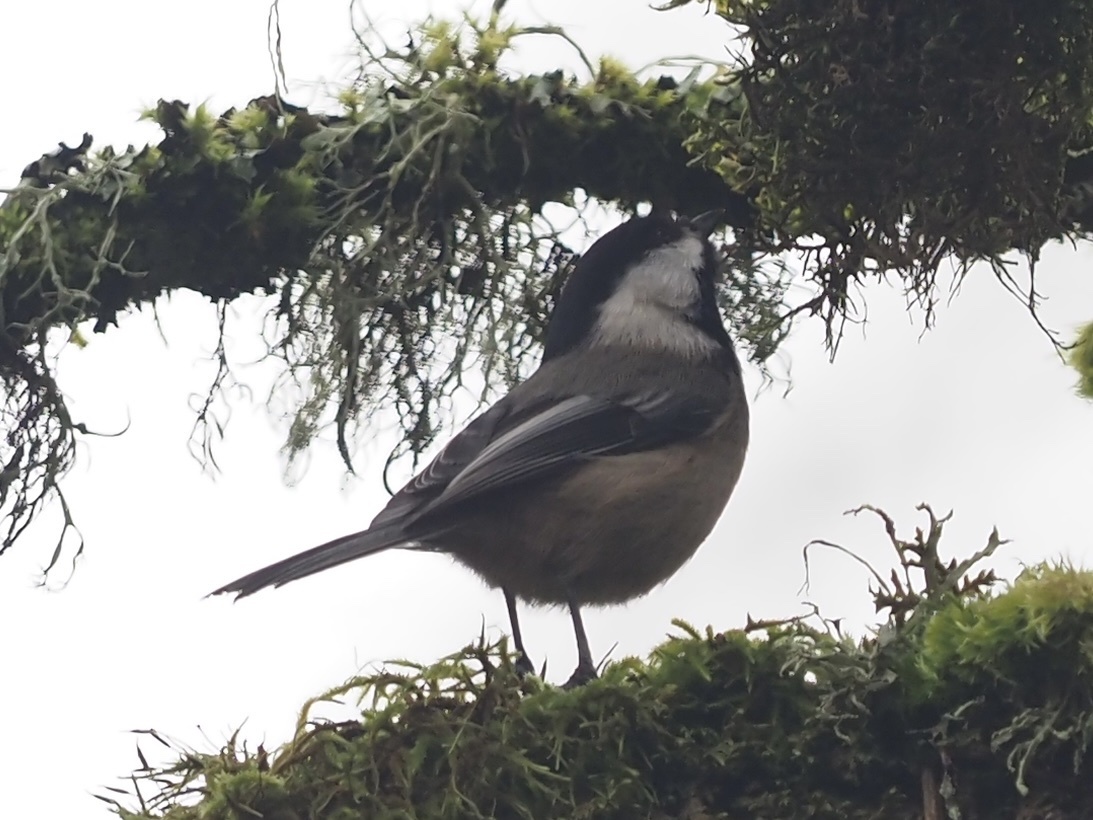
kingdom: Animalia
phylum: Chordata
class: Aves
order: Passeriformes
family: Paridae
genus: Poecile
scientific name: Poecile atricapillus
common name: Black-capped chickadee
